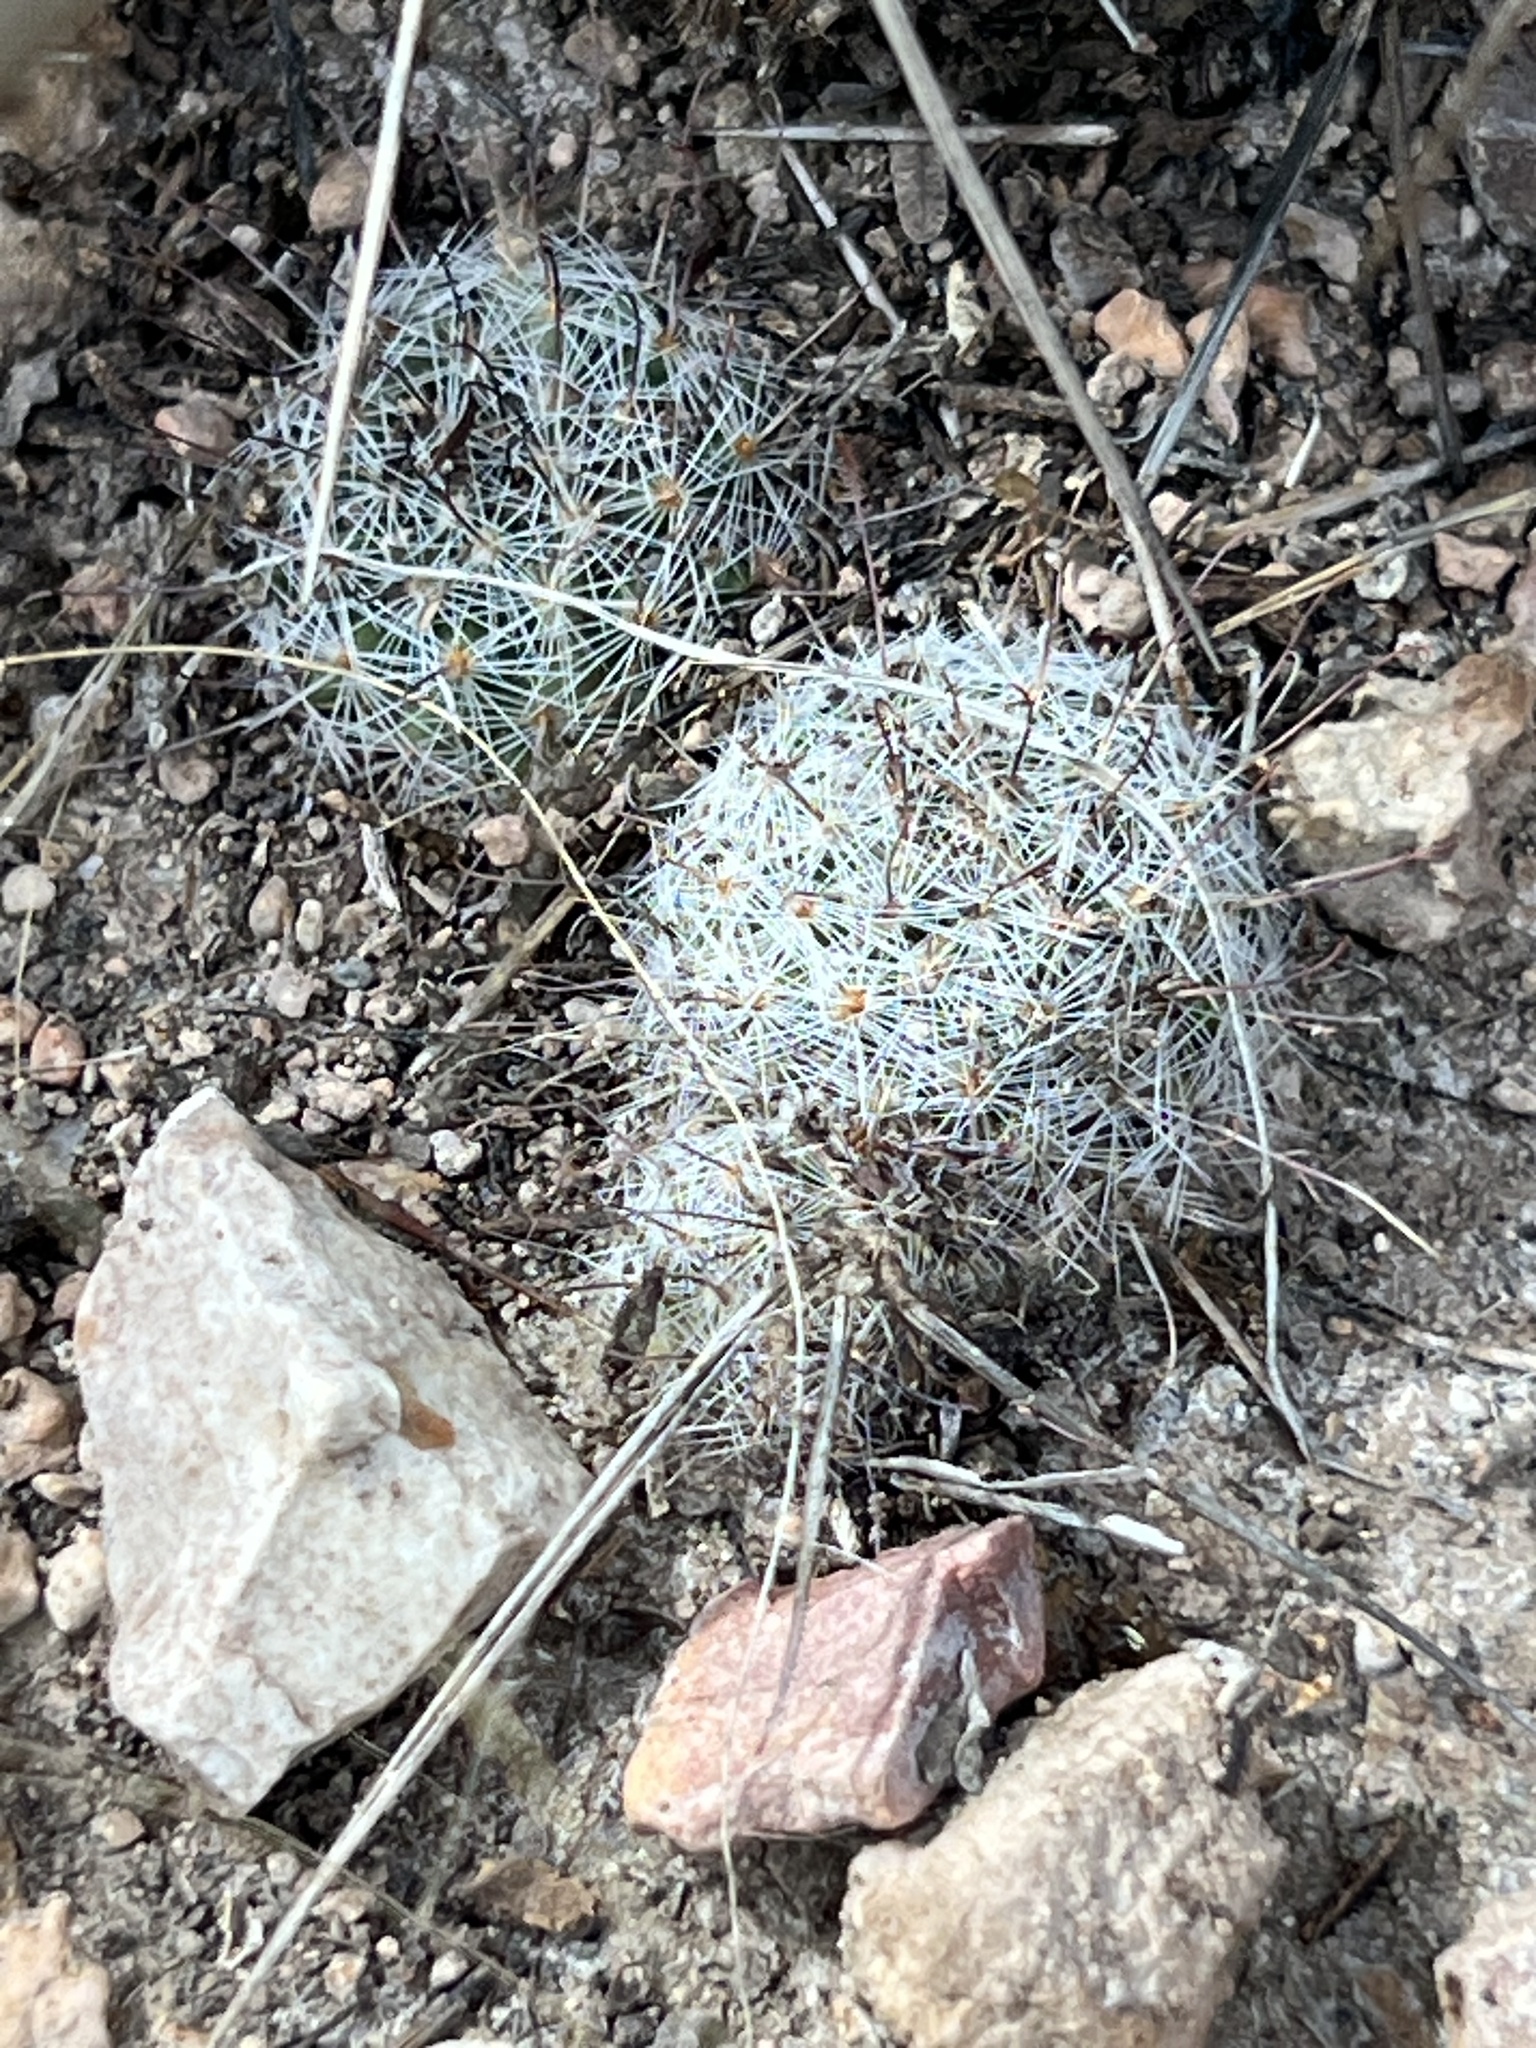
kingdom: Plantae
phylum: Tracheophyta
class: Magnoliopsida
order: Caryophyllales
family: Cactaceae
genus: Cochemiea
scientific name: Cochemiea grahamii
